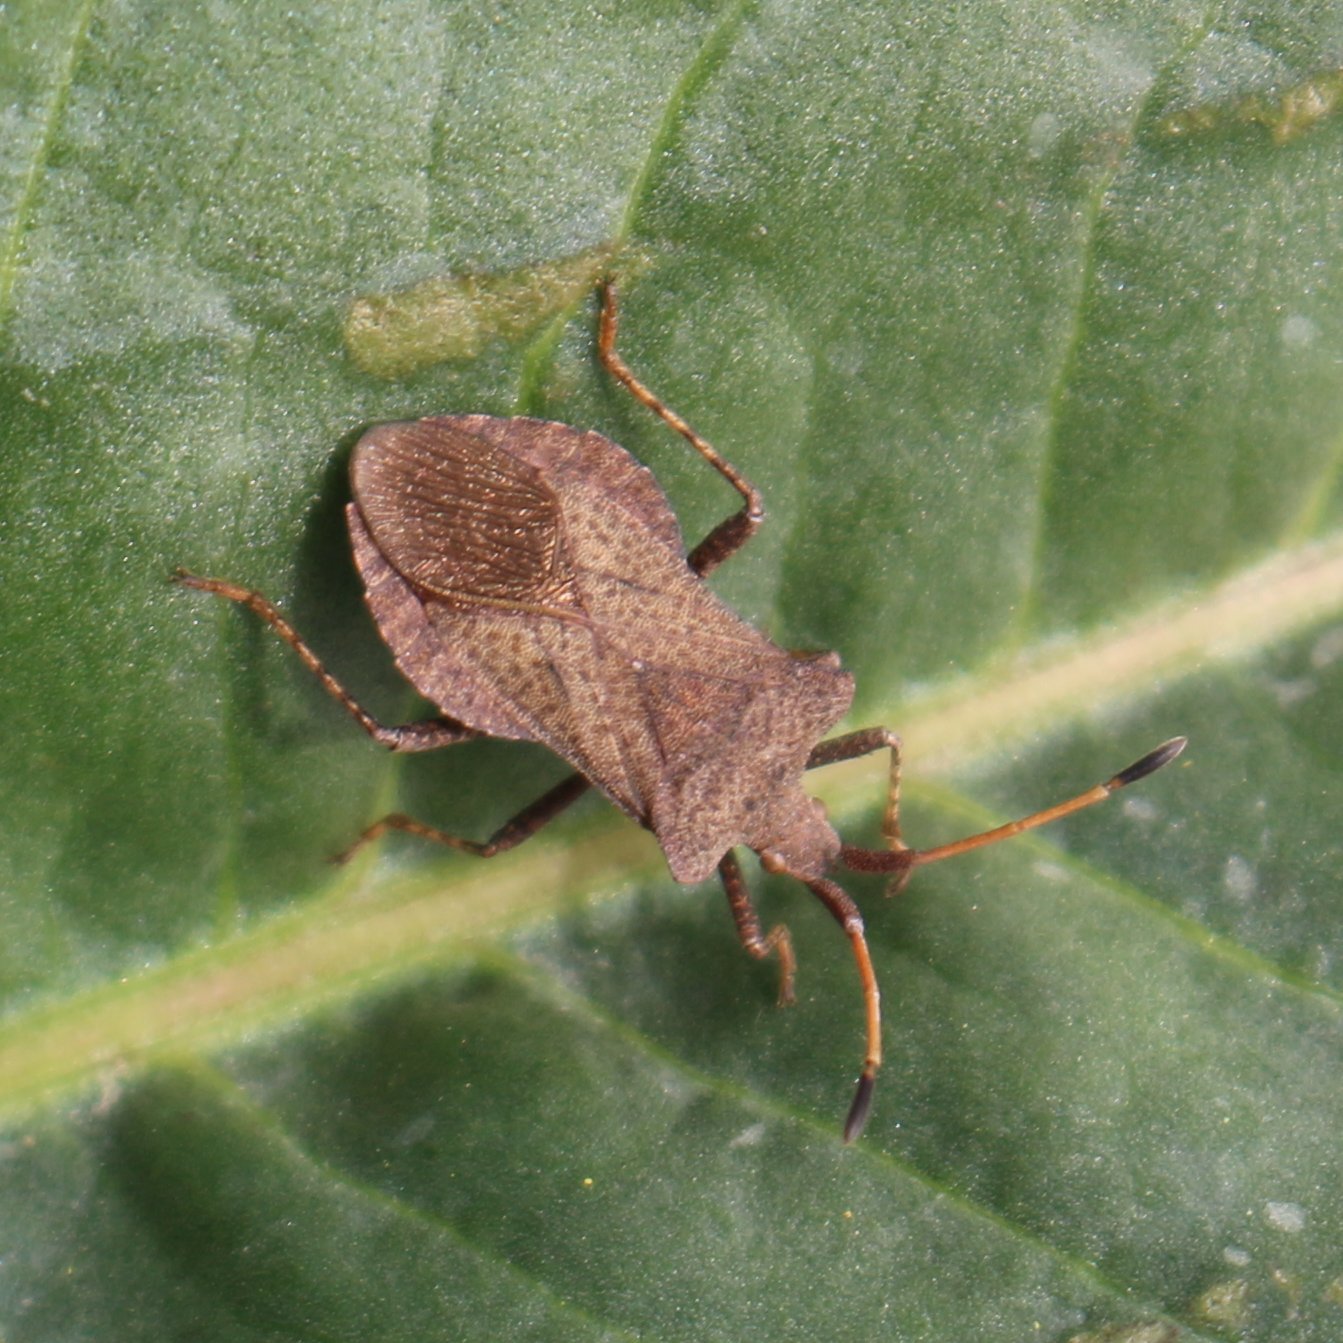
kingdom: Animalia
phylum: Arthropoda
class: Insecta
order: Hemiptera
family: Coreidae
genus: Coreus
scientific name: Coreus marginatus
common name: Dock bug
